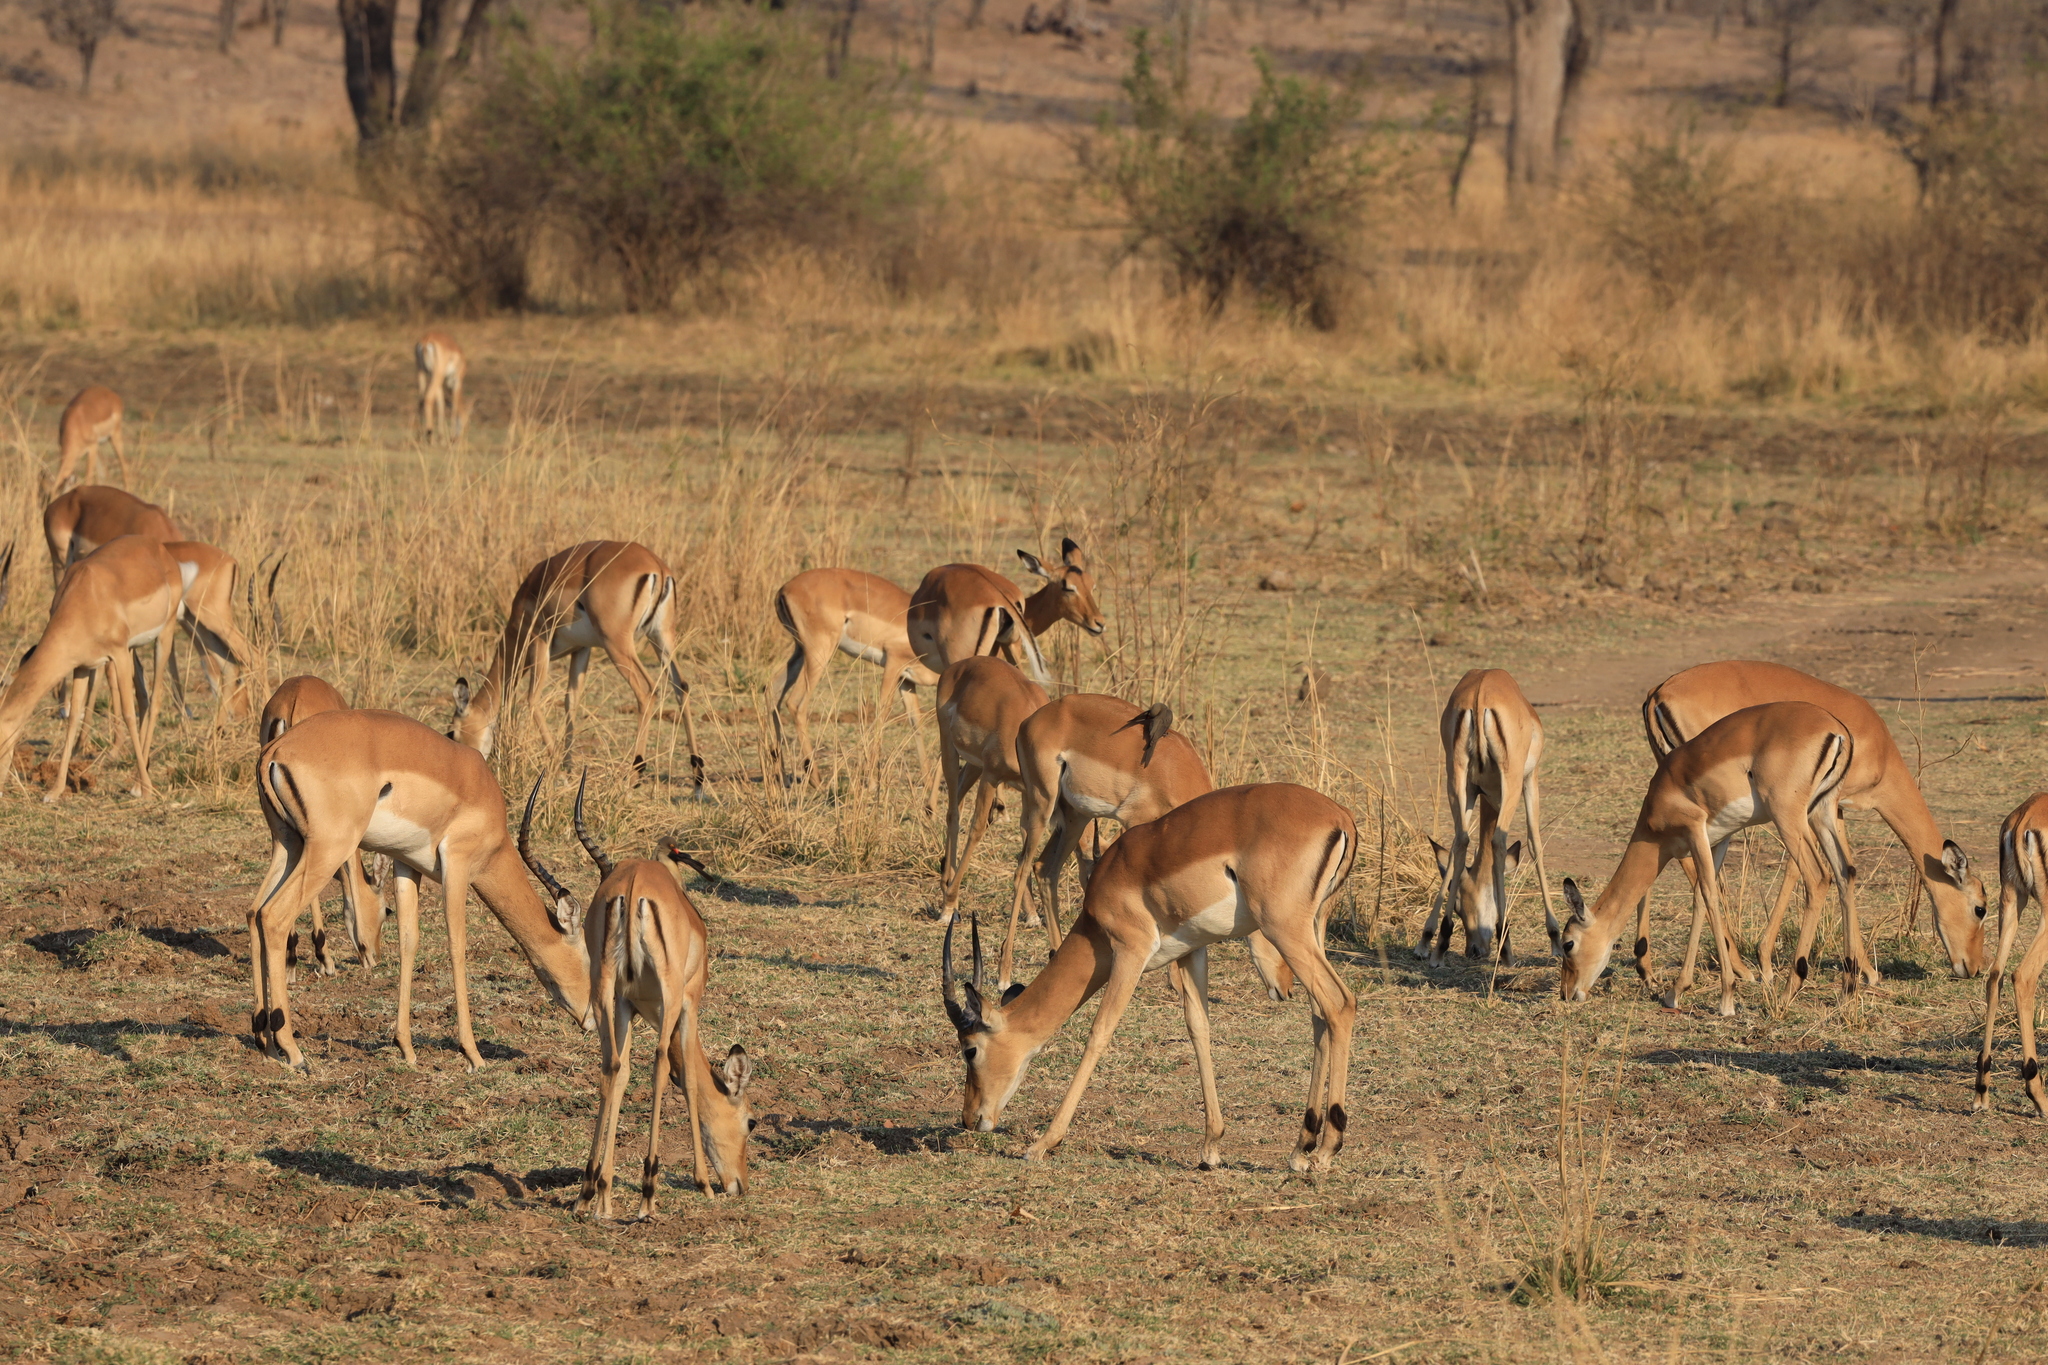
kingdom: Animalia
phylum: Chordata
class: Mammalia
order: Artiodactyla
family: Bovidae
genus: Aepyceros
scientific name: Aepyceros melampus
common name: Impala
